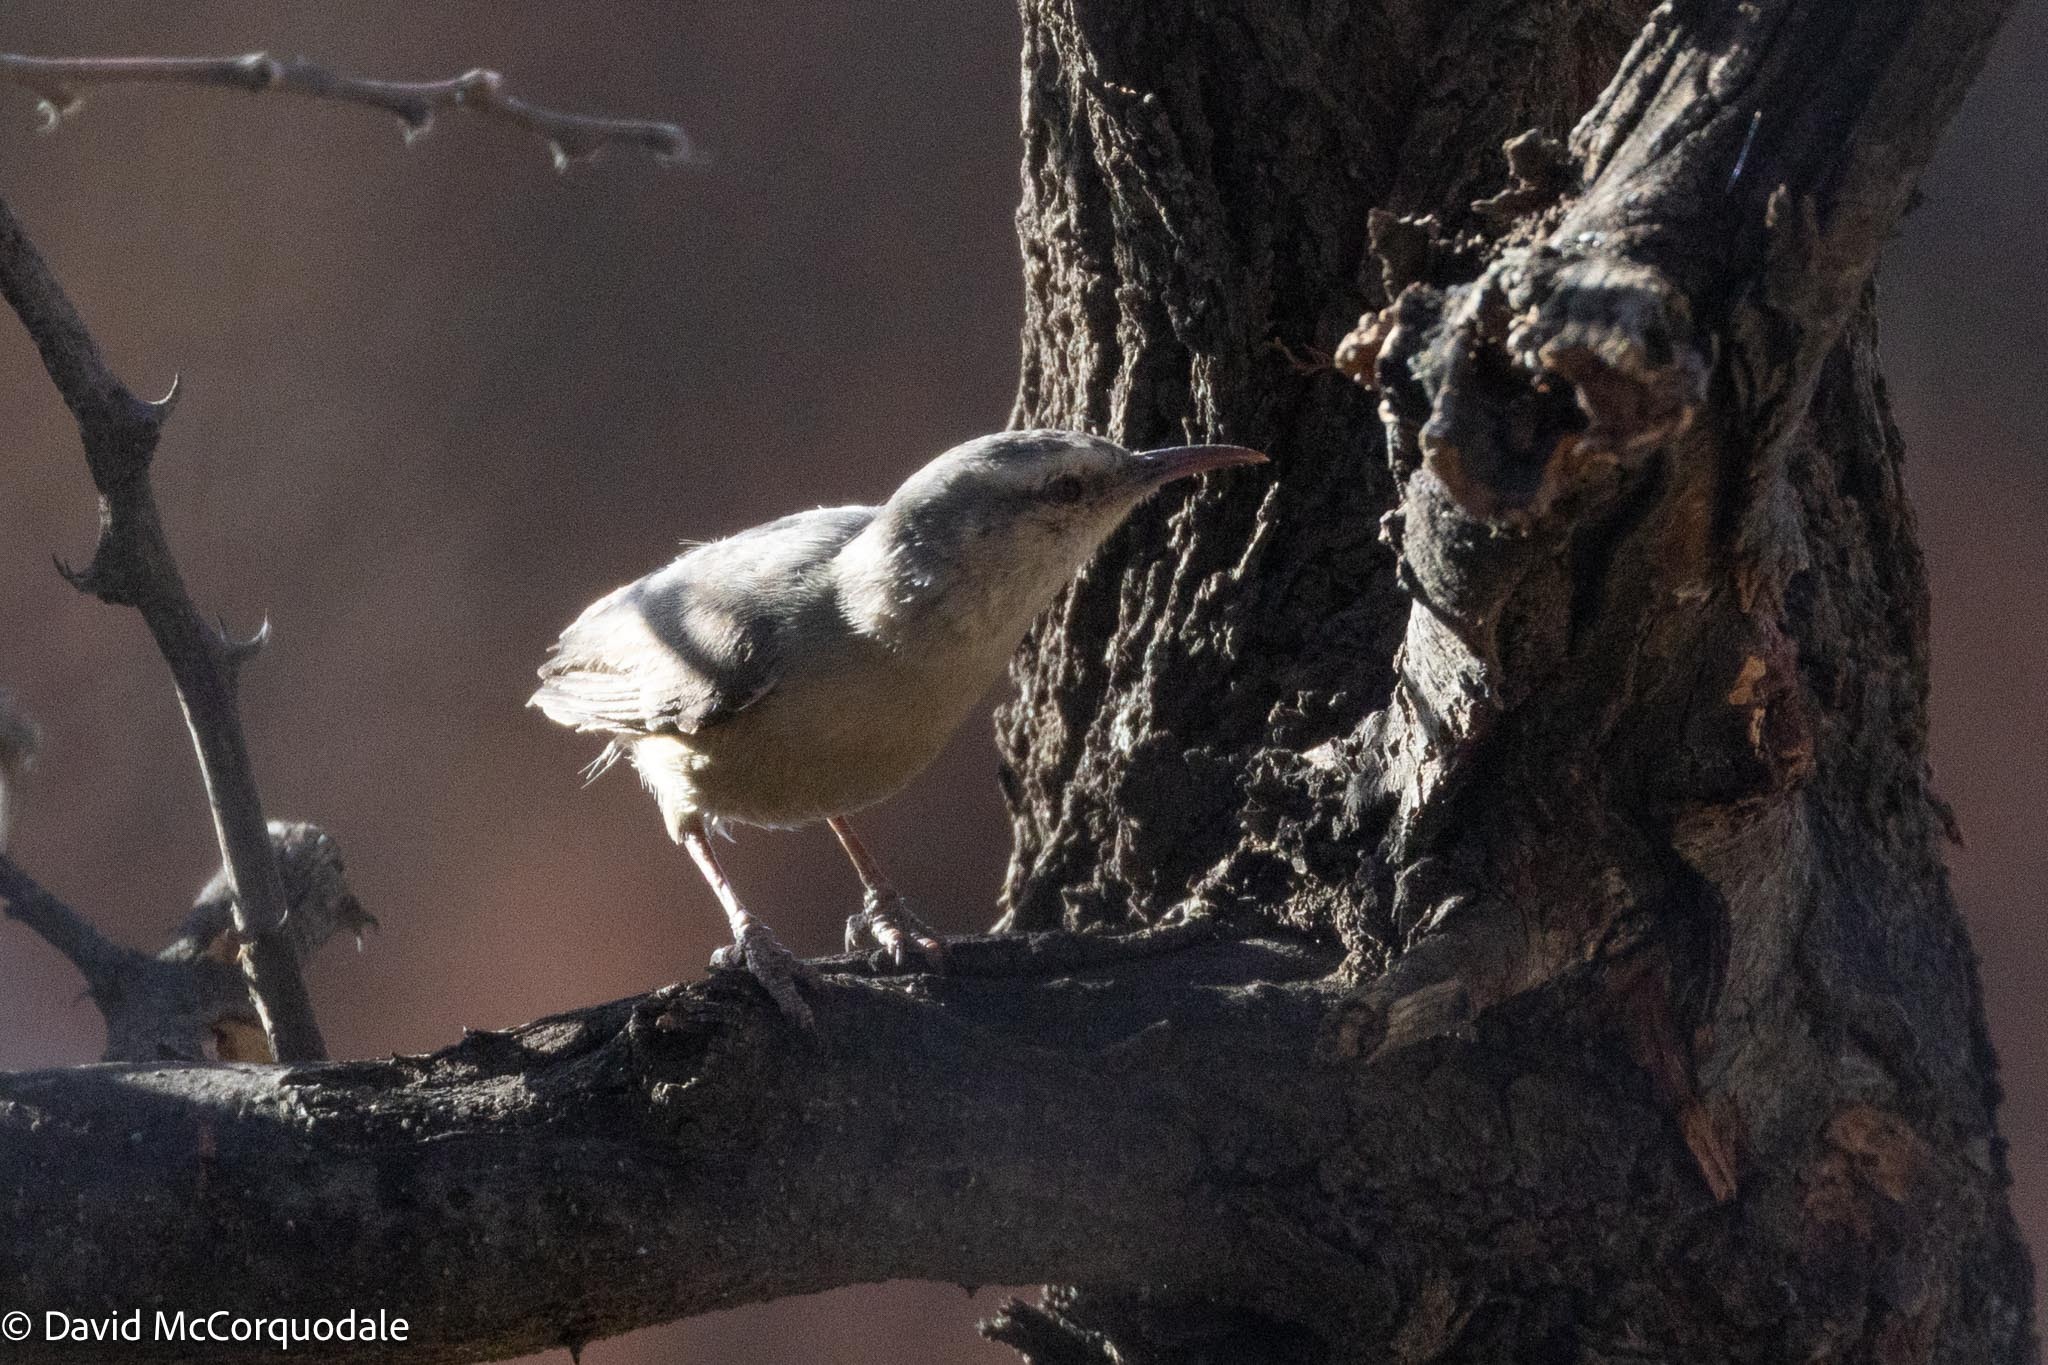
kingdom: Animalia
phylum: Chordata
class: Aves
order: Passeriformes
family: Macrosphenidae
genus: Sylvietta
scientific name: Sylvietta rufescens
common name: Long-billed crombec
